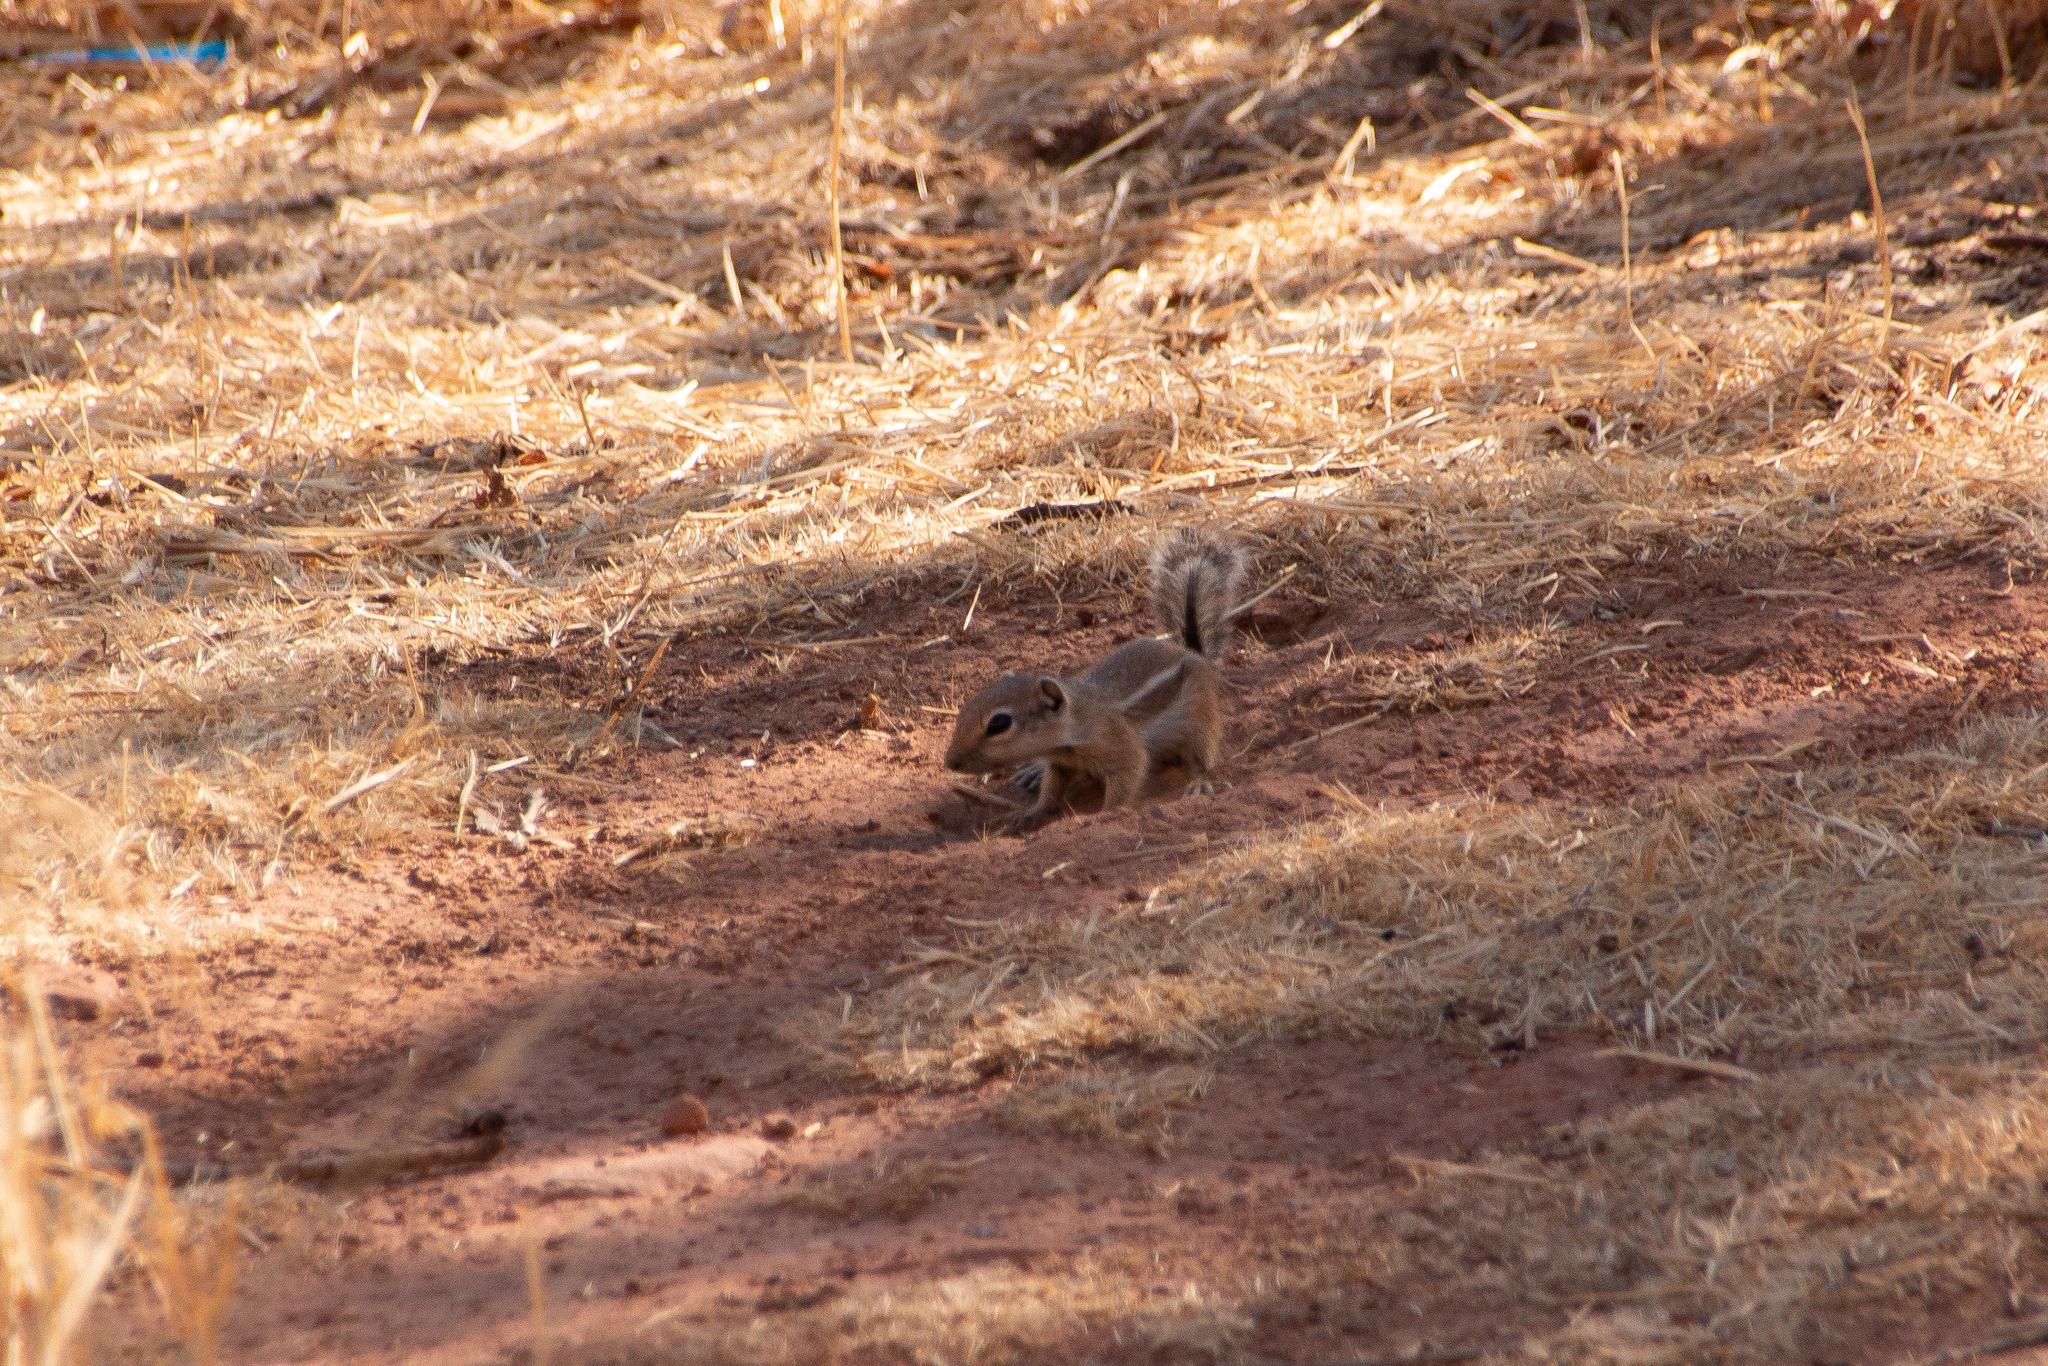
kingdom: Animalia
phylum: Chordata
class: Mammalia
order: Rodentia
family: Sciuridae
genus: Ammospermophilus
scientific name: Ammospermophilus leucurus
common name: White-tailed antelope squirrel
